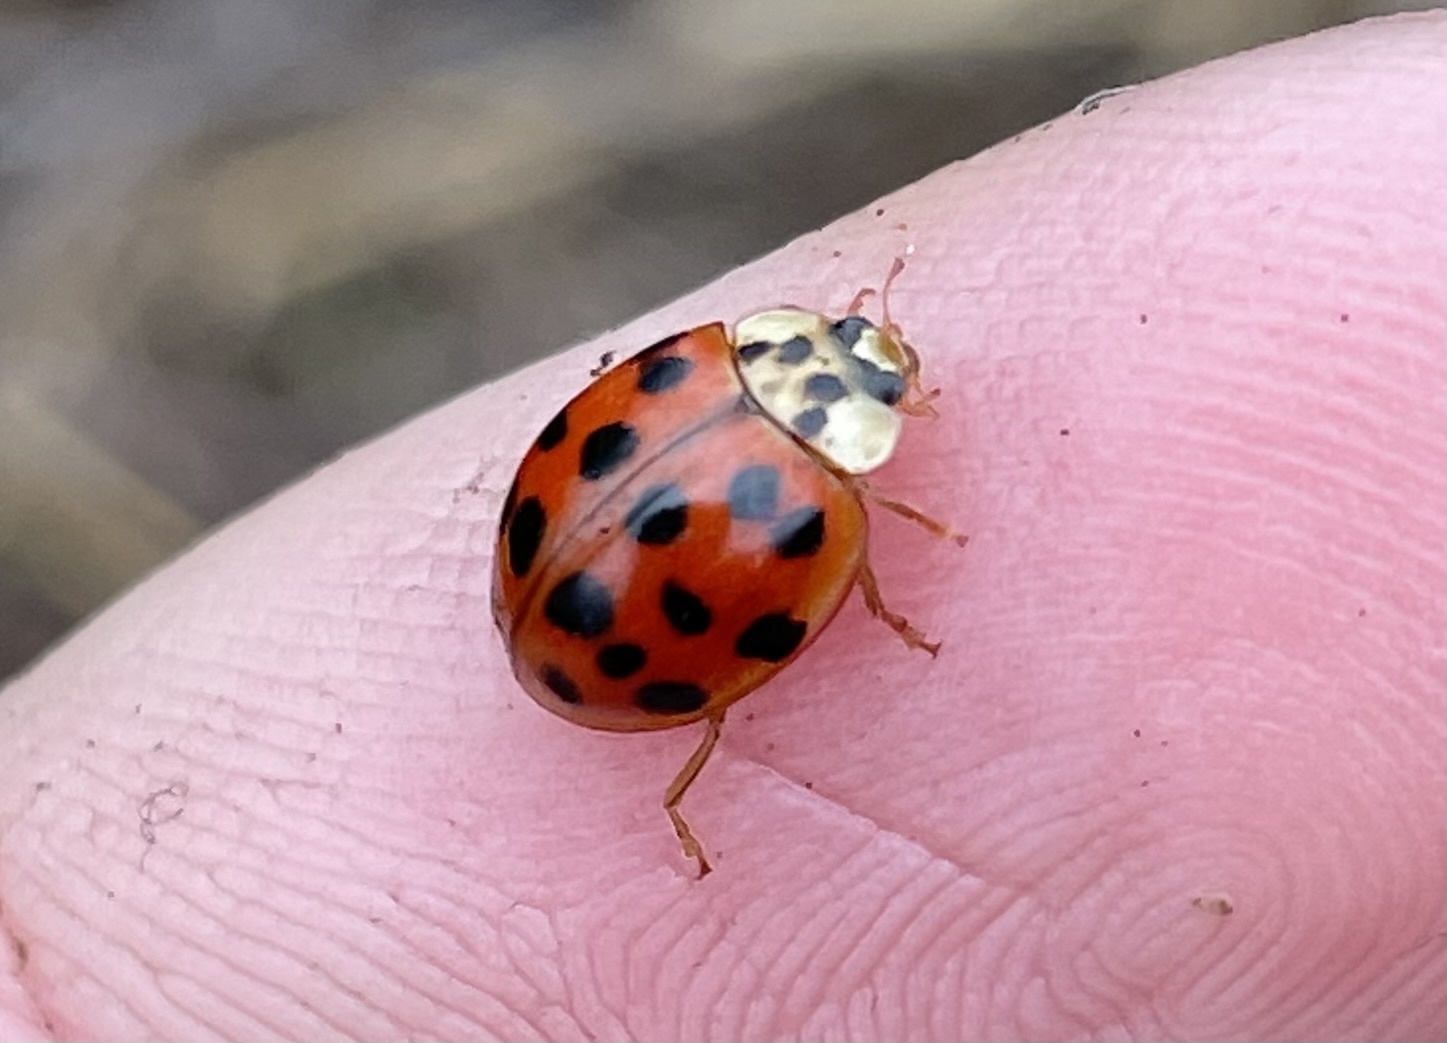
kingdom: Animalia
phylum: Arthropoda
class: Insecta
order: Coleoptera
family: Coccinellidae
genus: Harmonia
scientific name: Harmonia axyridis
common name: Harlequin ladybird
